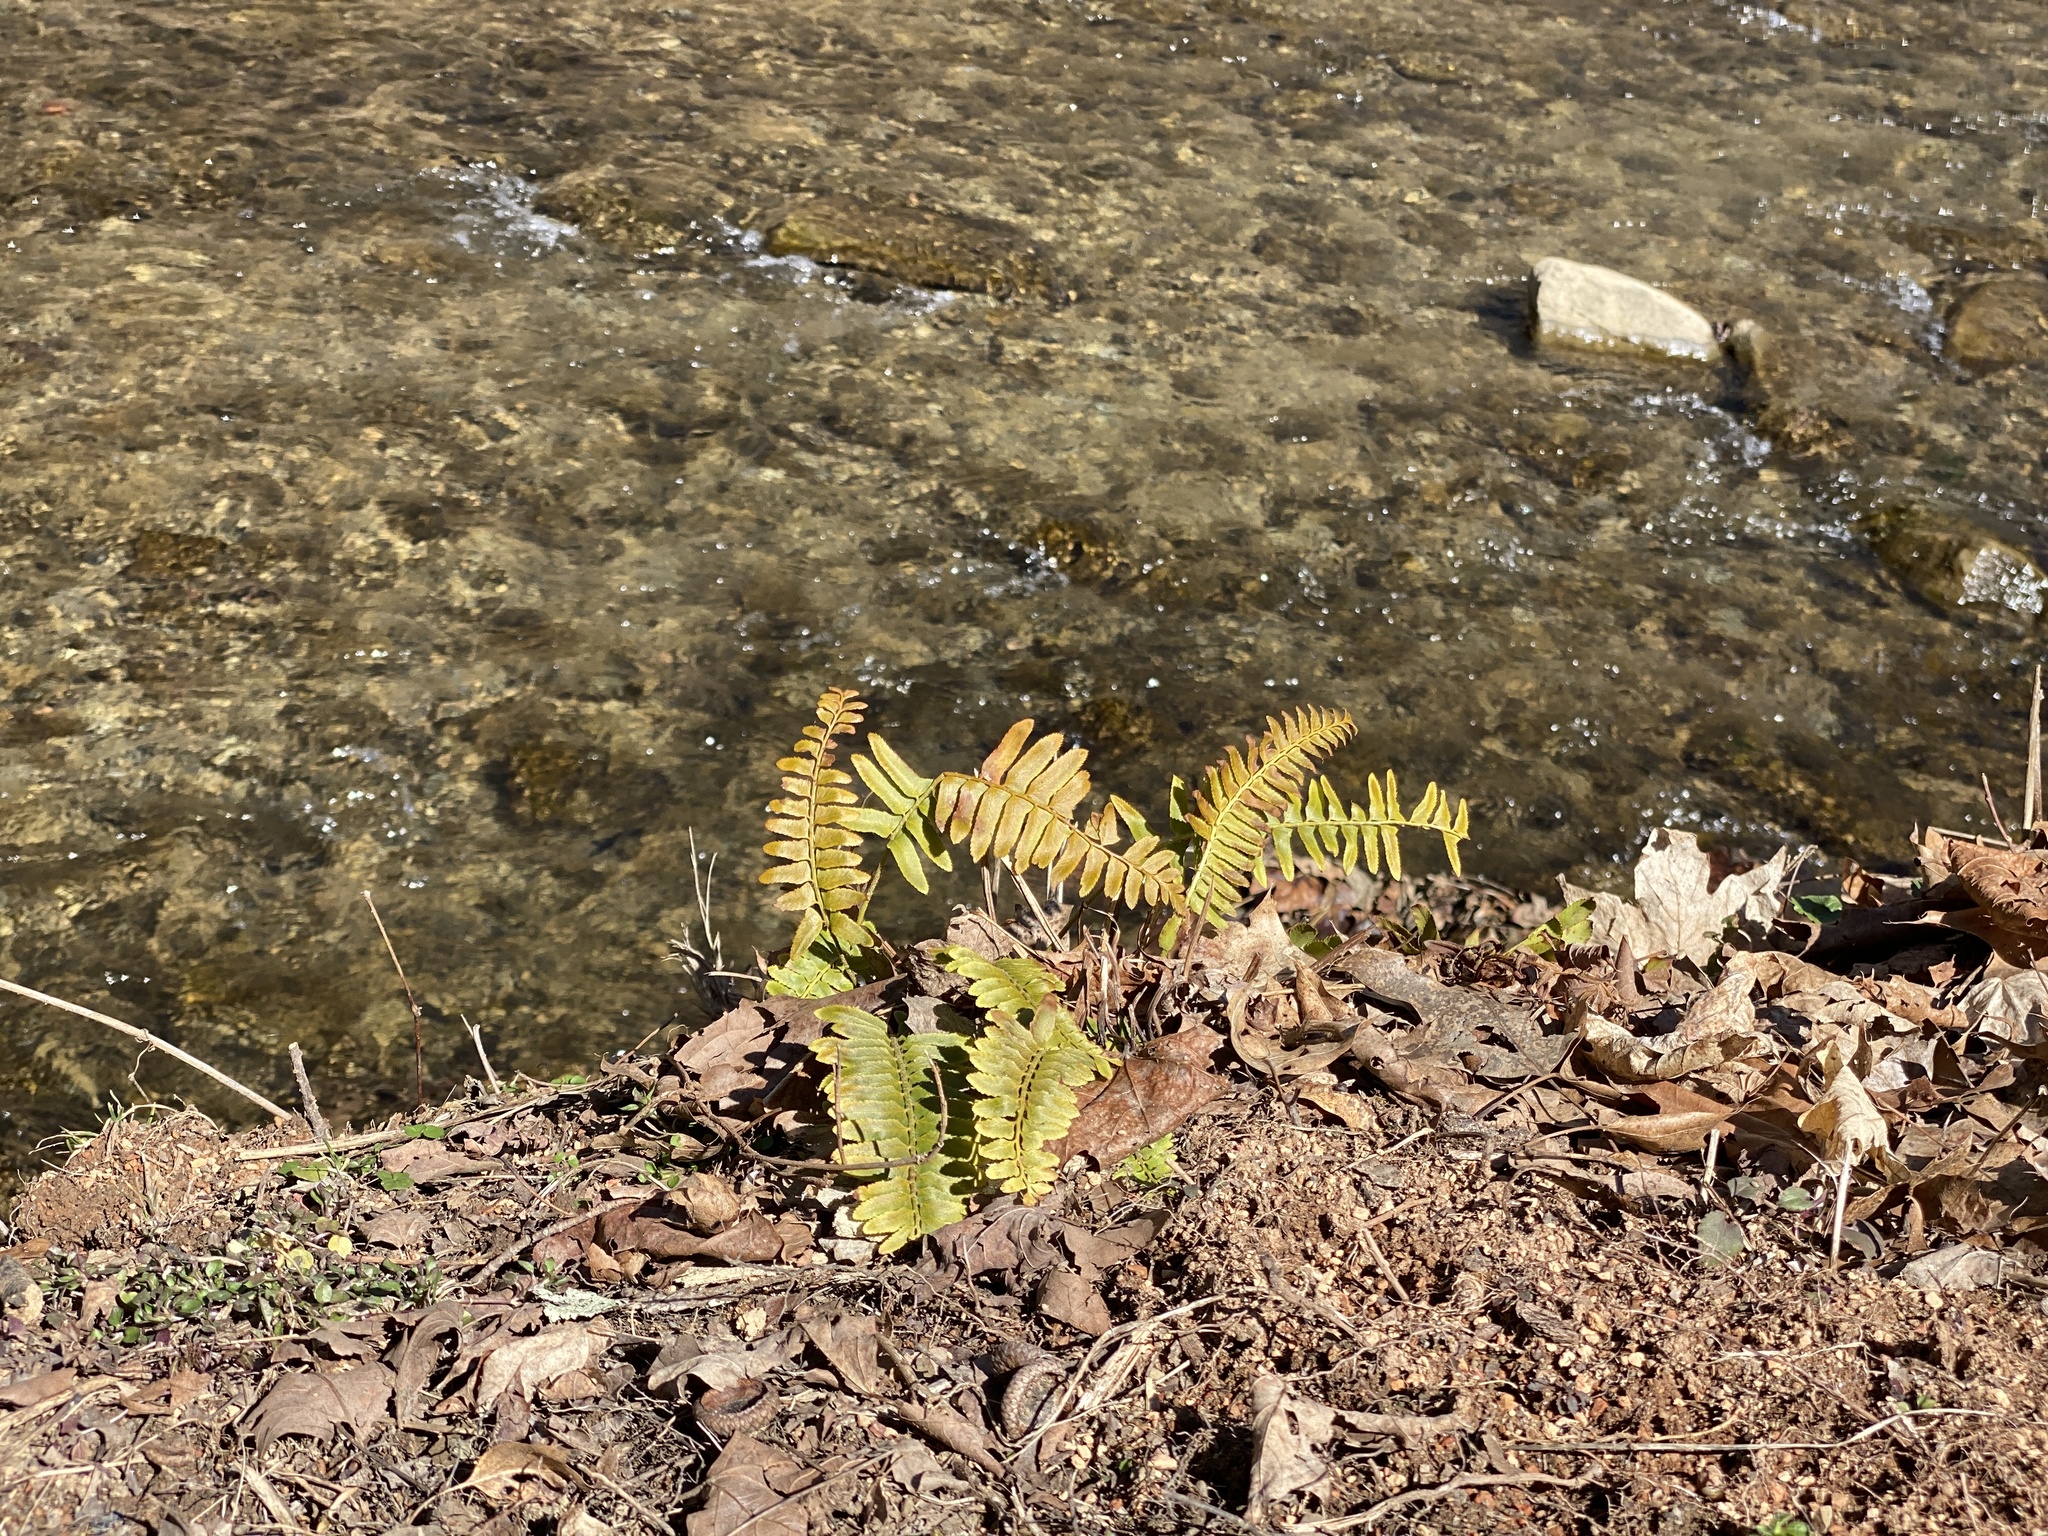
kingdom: Plantae
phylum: Tracheophyta
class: Polypodiopsida
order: Polypodiales
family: Dryopteridaceae
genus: Polystichum
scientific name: Polystichum acrostichoides
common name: Christmas fern
